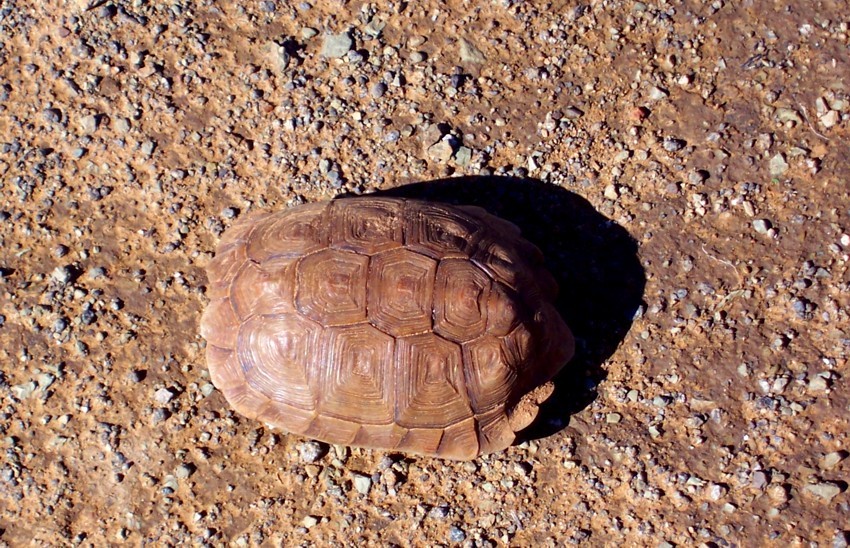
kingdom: Animalia
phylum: Chordata
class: Testudines
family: Testudinidae
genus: Homopus
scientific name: Homopus femoralis
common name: Greater dwarf tortoise
